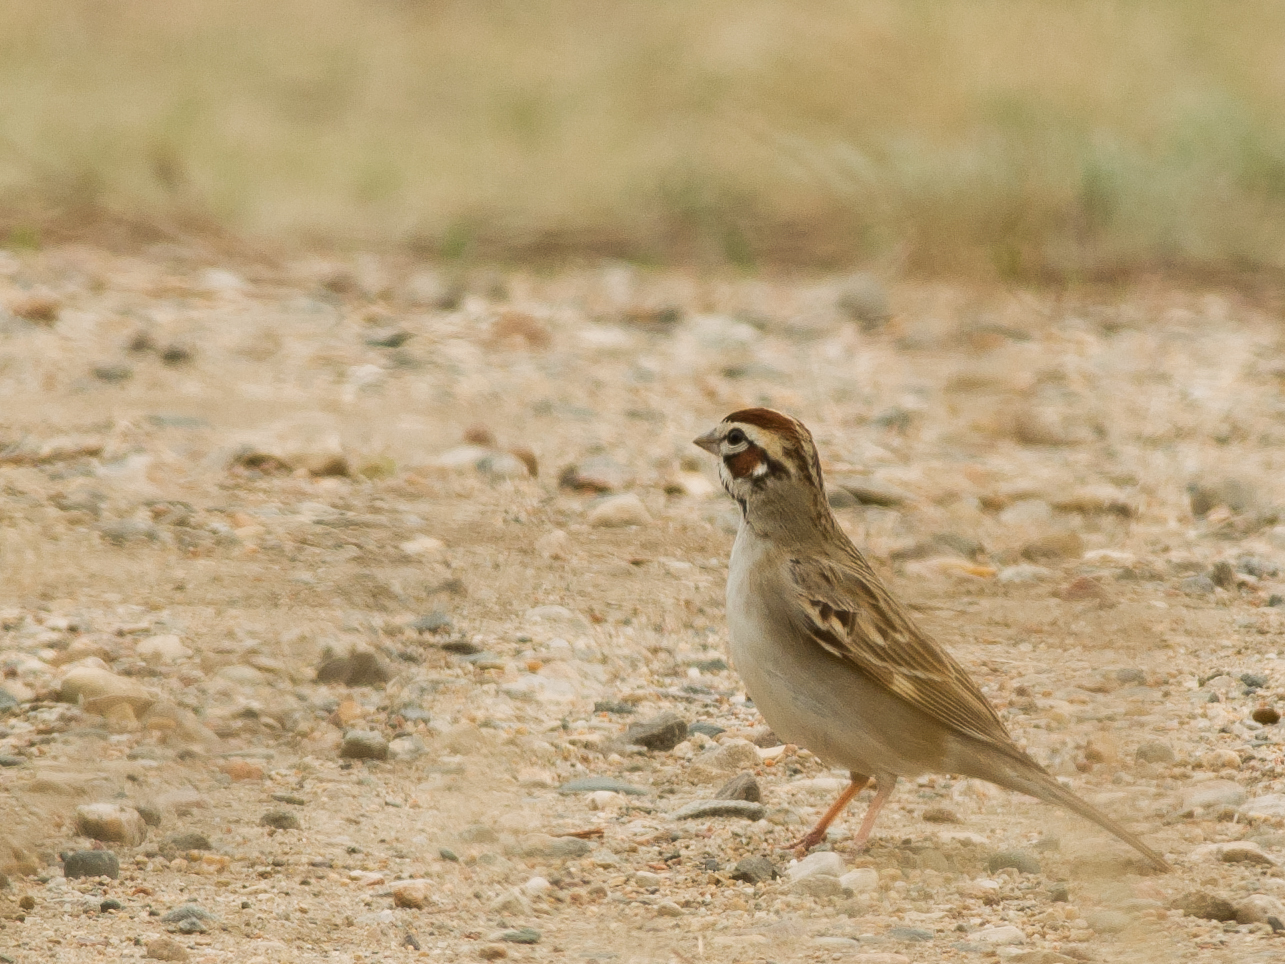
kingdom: Animalia
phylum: Chordata
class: Aves
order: Passeriformes
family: Passerellidae
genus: Chondestes
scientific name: Chondestes grammacus
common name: Lark sparrow
